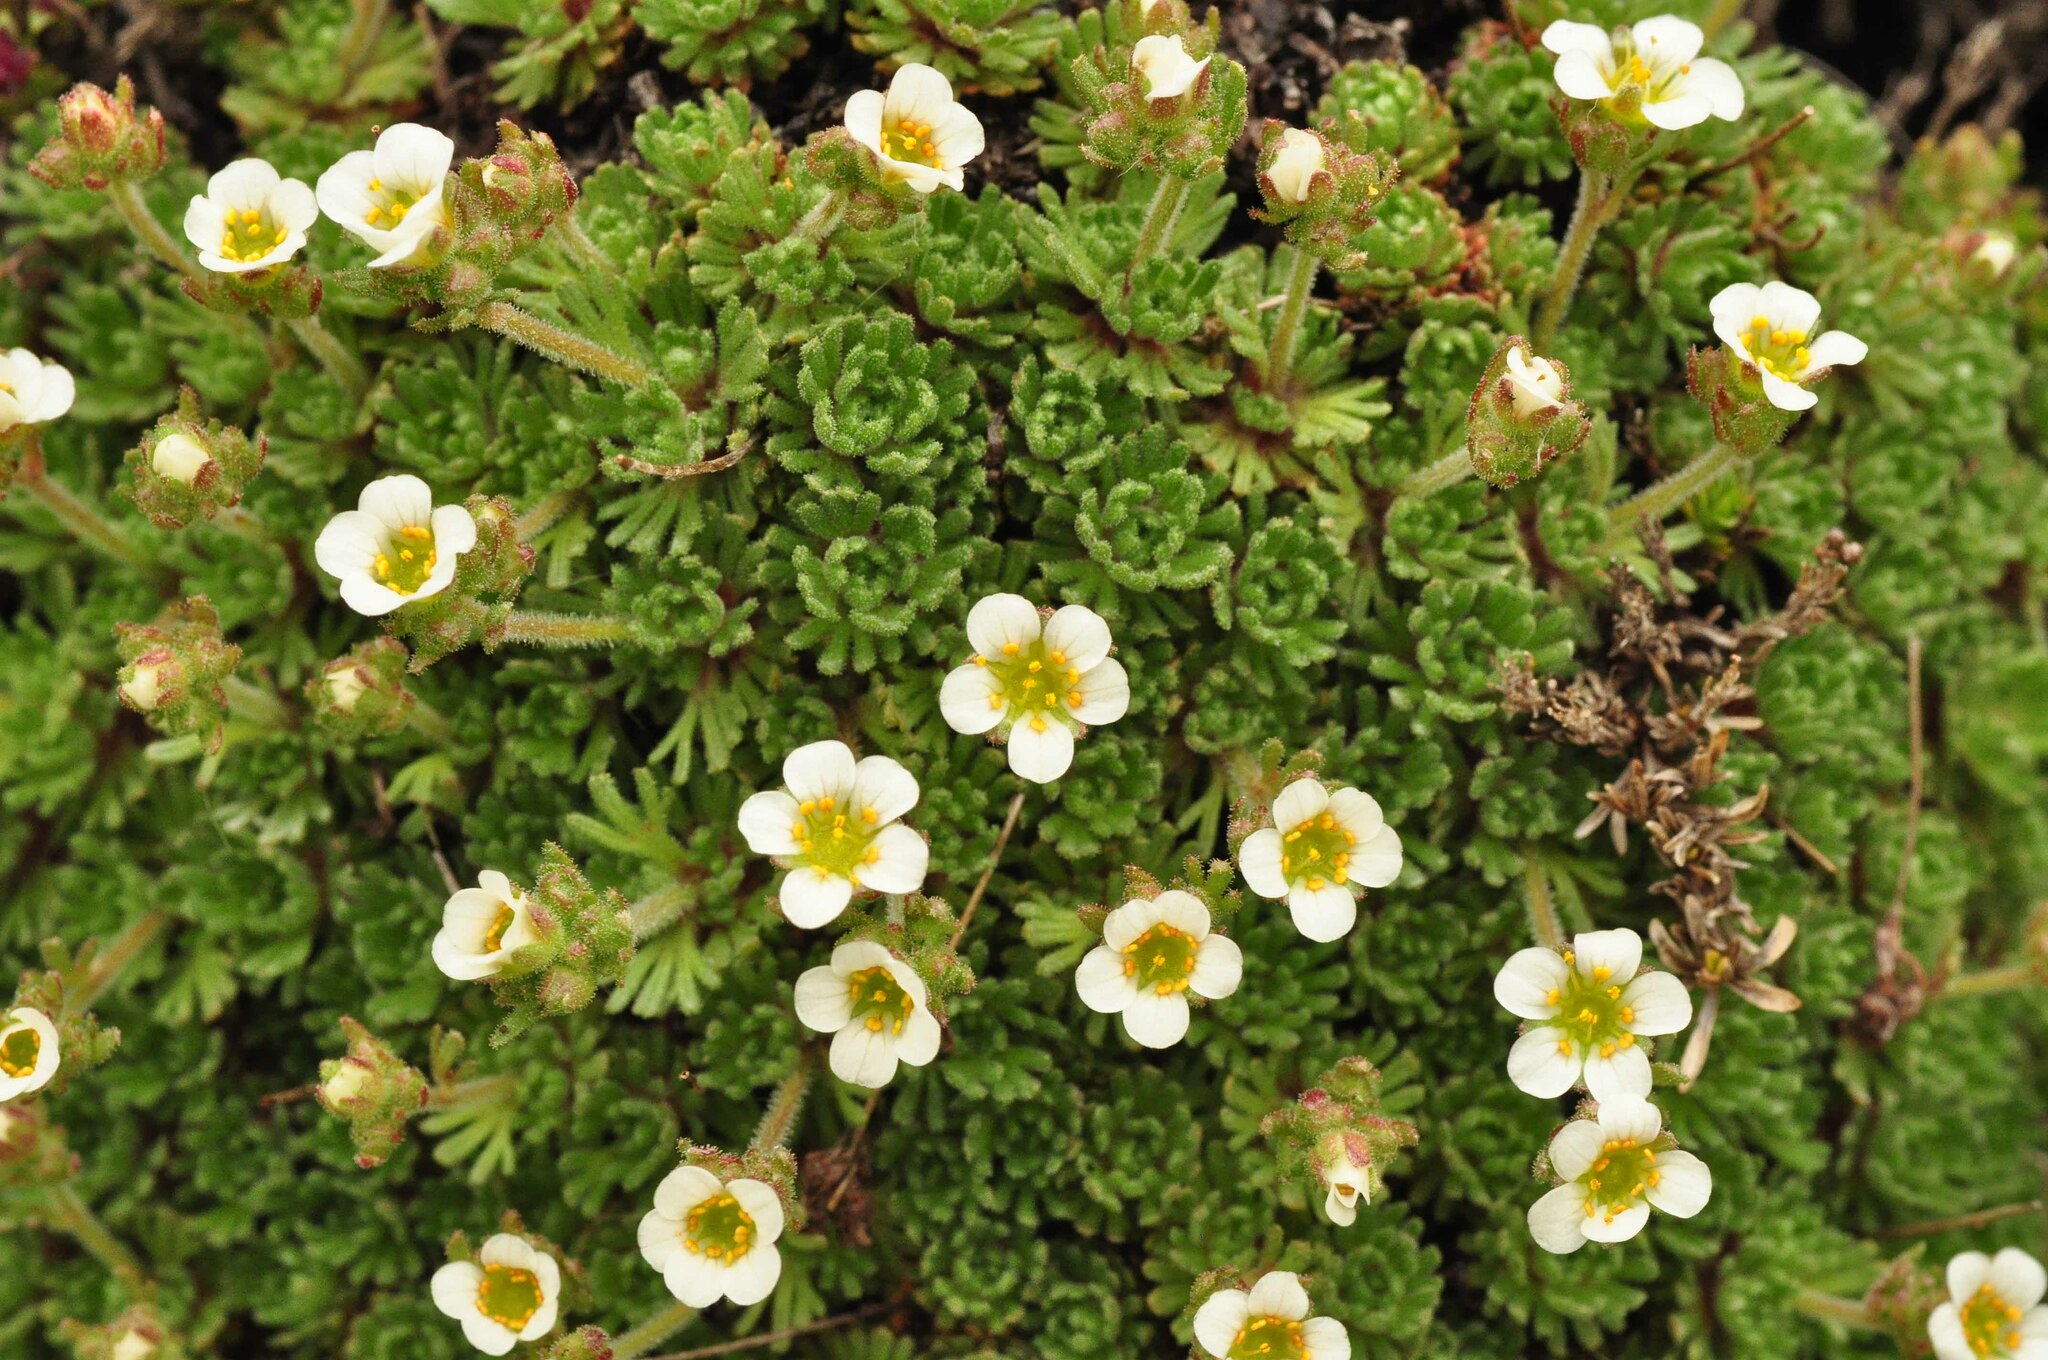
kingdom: Plantae
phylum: Tracheophyta
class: Magnoliopsida
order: Saxifragales
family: Saxifragaceae
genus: Saxifraga
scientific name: Saxifraga pubescens
